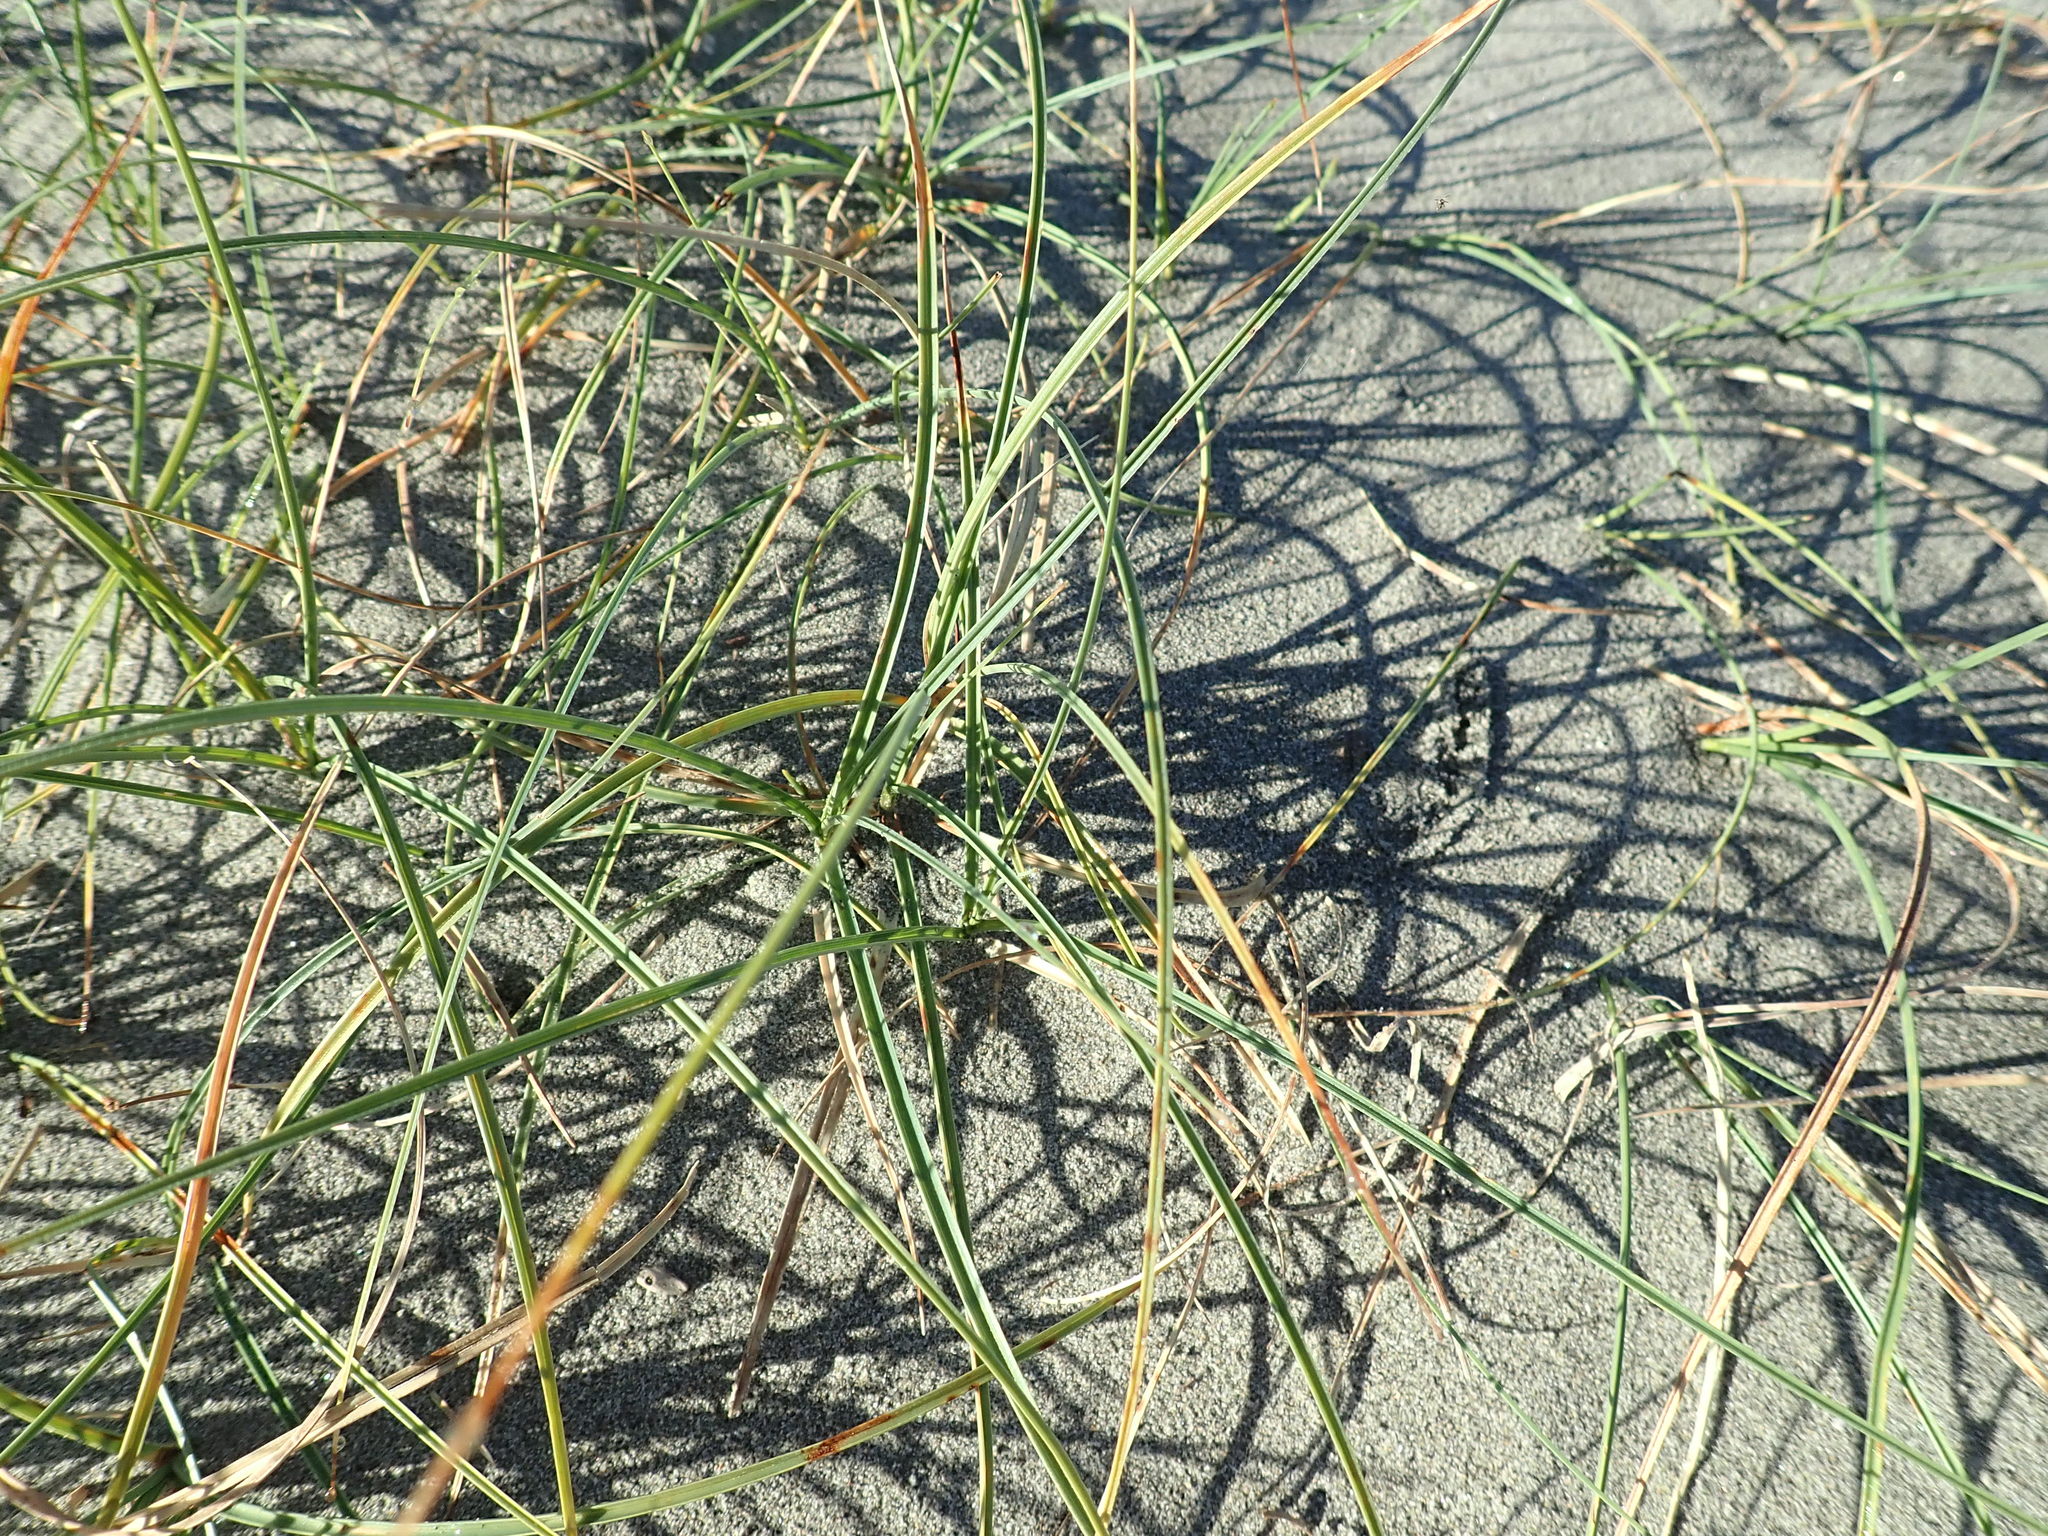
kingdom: Plantae
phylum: Tracheophyta
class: Liliopsida
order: Poales
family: Cyperaceae
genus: Carex
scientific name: Carex pumila
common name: Dwarf sedge
